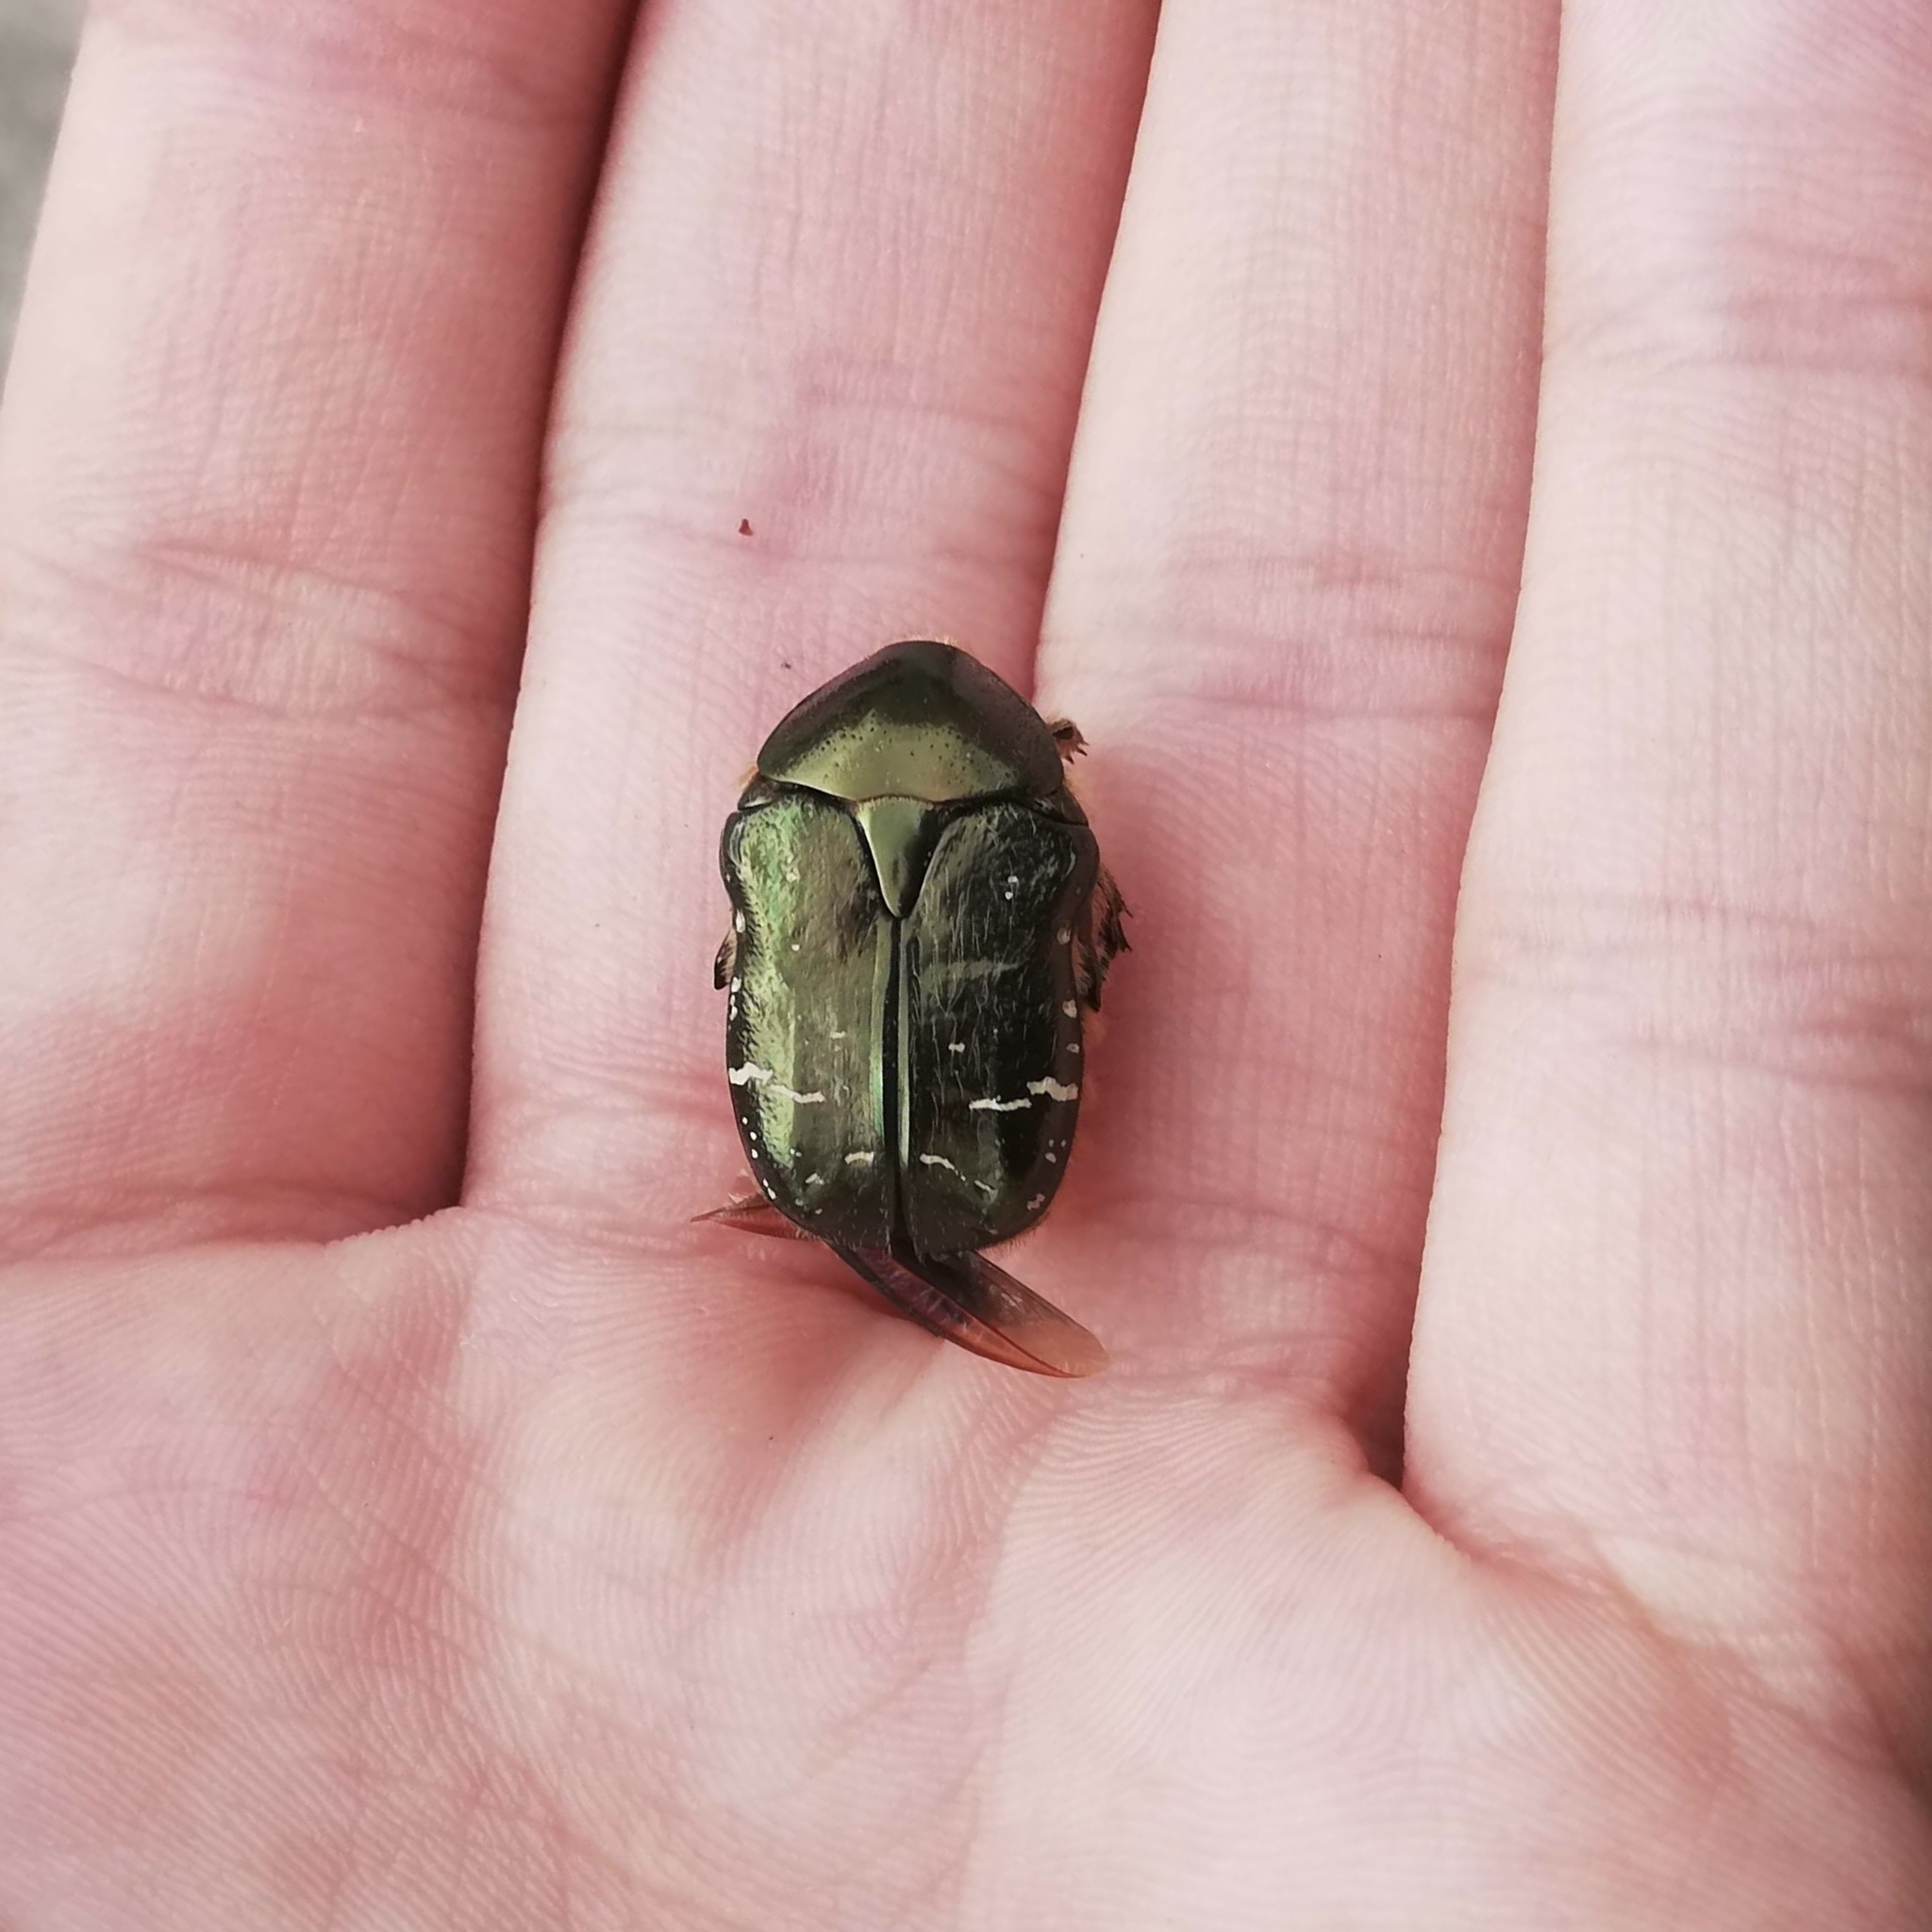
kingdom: Animalia
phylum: Arthropoda
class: Insecta
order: Coleoptera
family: Scarabaeidae
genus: Cetonia
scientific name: Cetonia aurata
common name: Rose chafer
